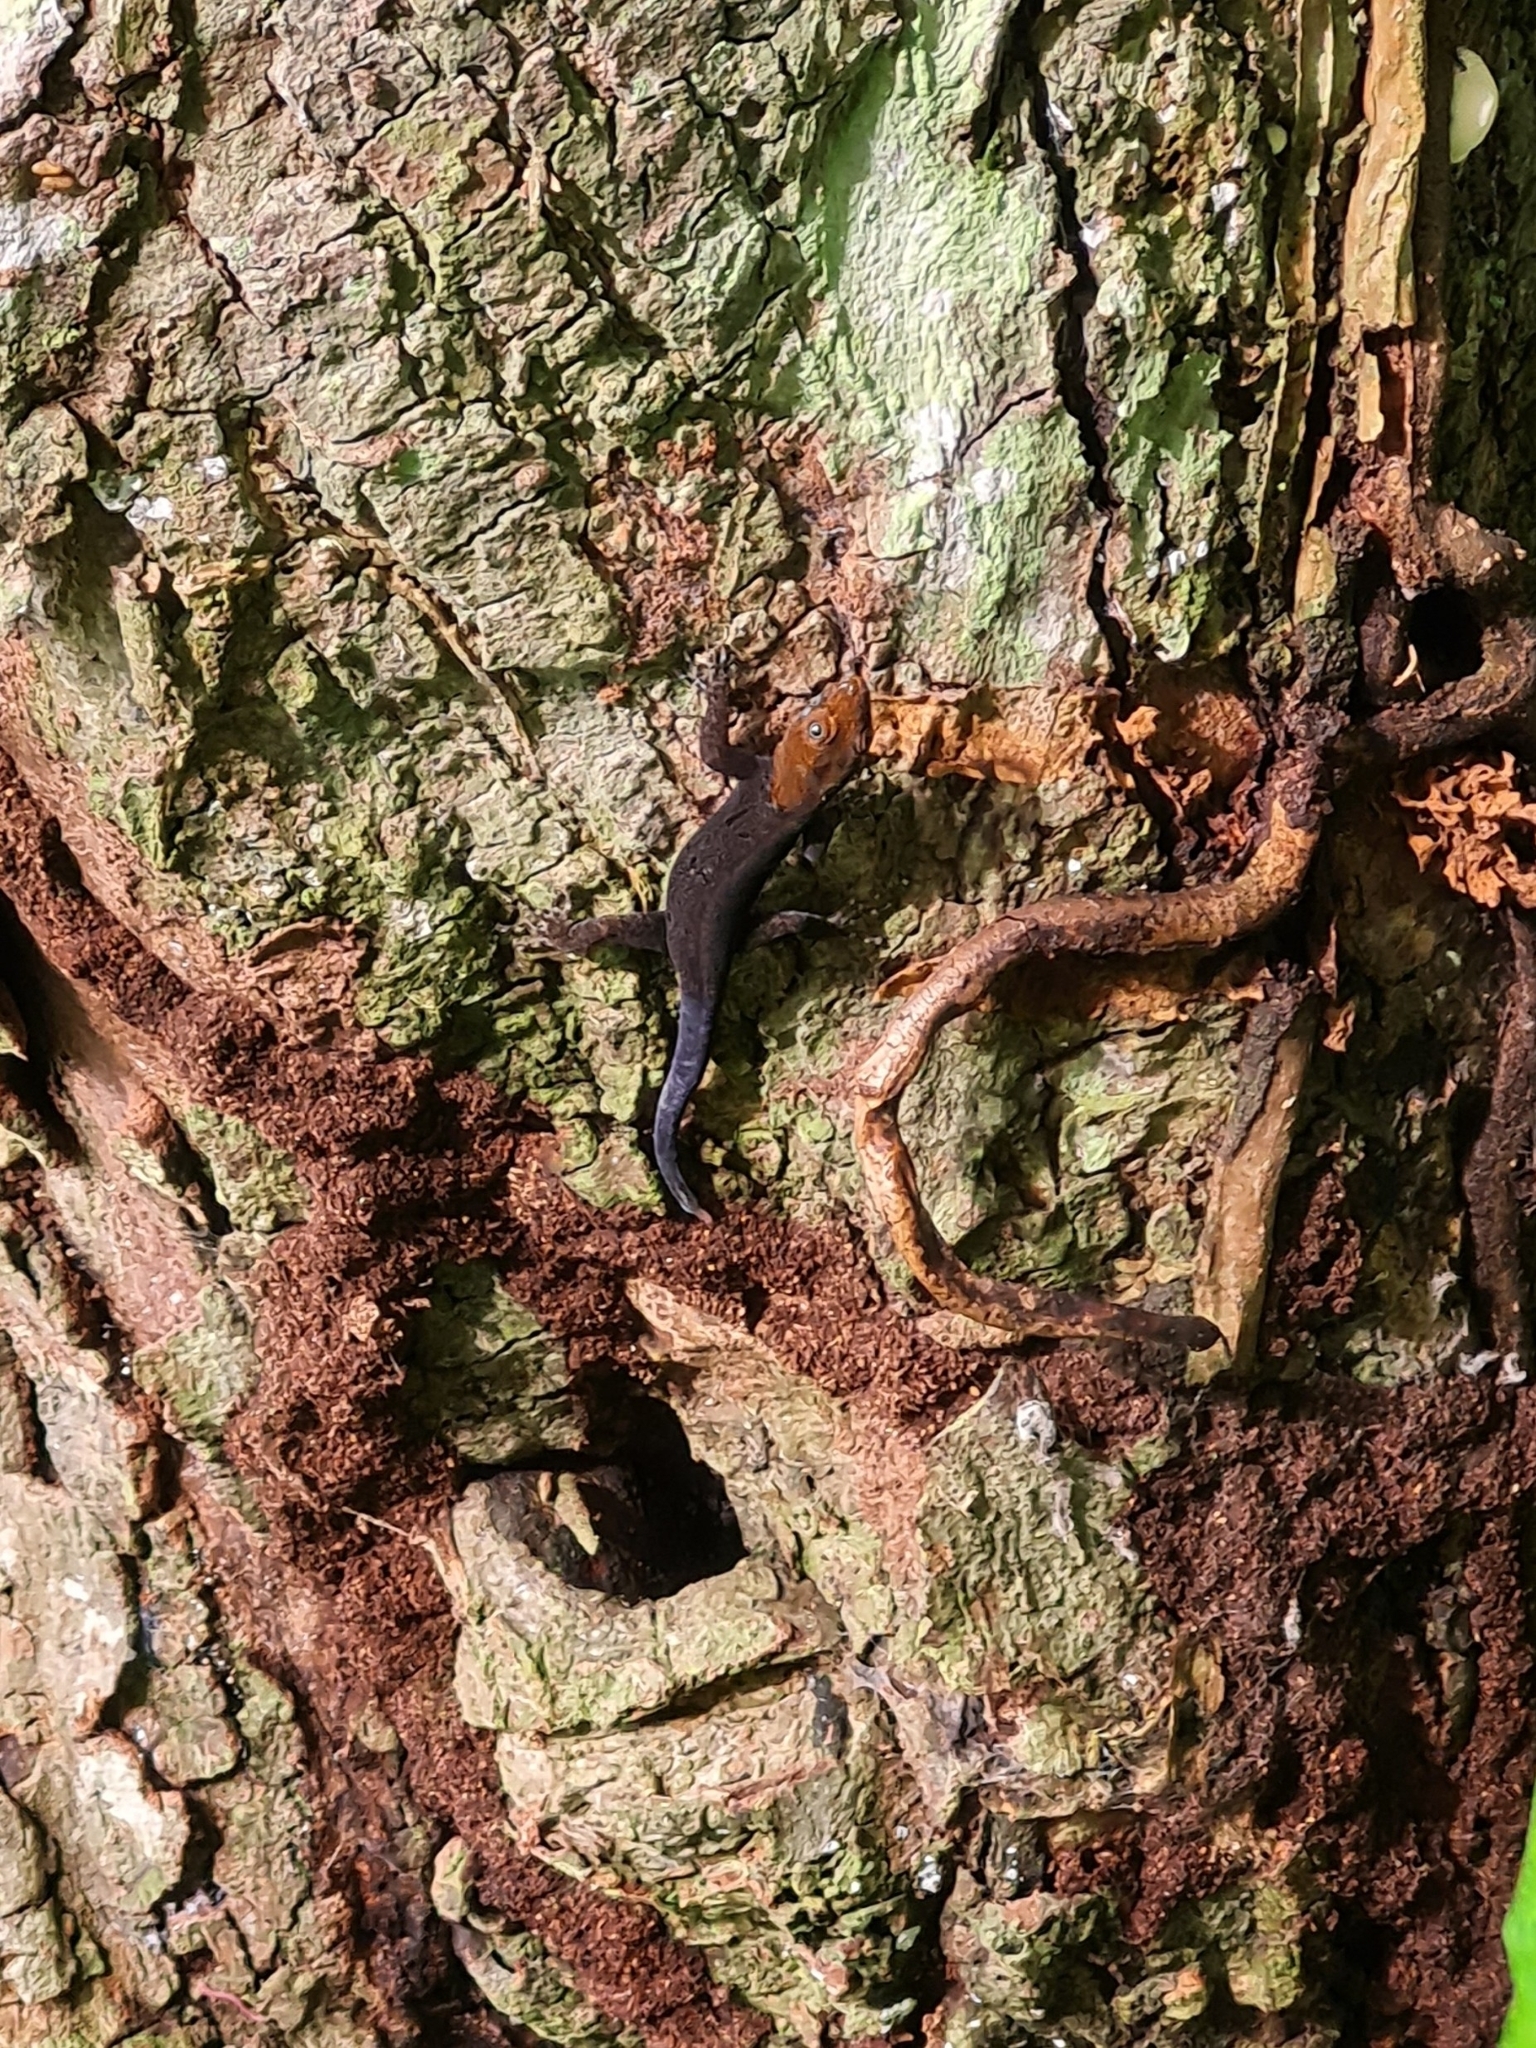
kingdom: Animalia
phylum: Chordata
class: Squamata
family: Sphaerodactylidae
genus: Gonatodes
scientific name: Gonatodes albogularis
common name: Yellow-headed gecko
